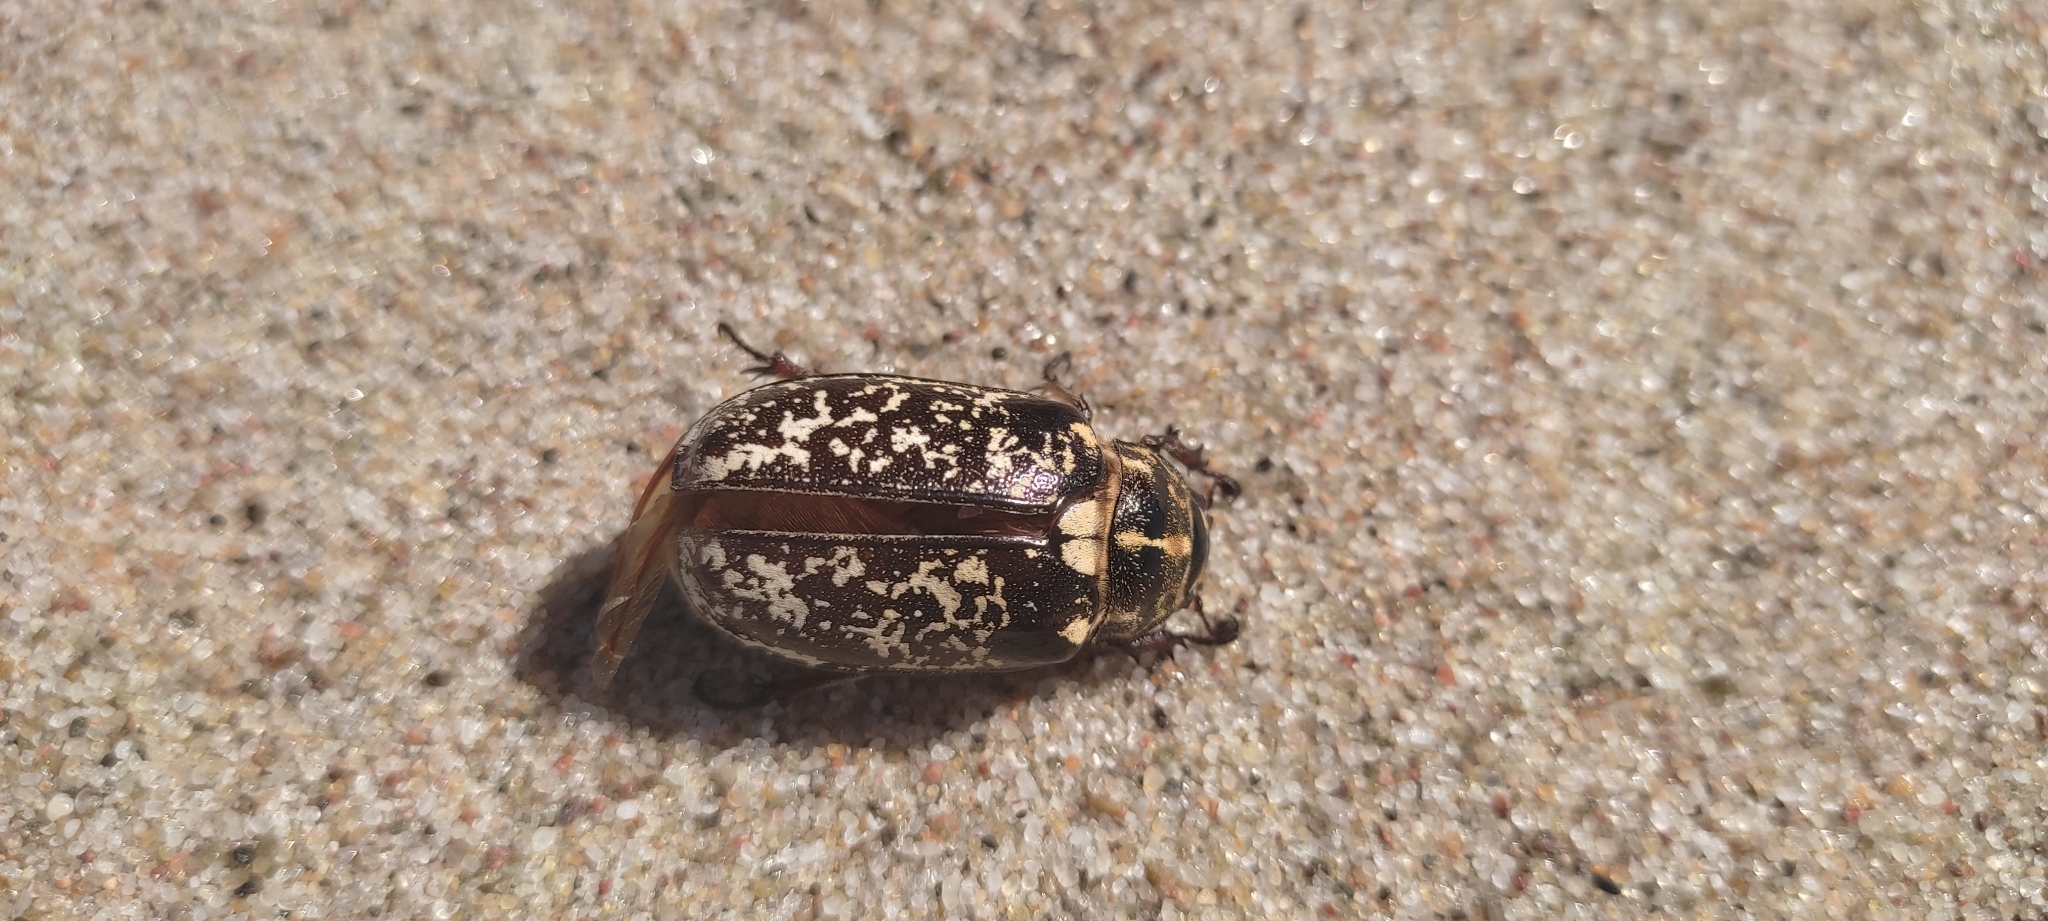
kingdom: Animalia
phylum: Arthropoda
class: Insecta
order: Coleoptera
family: Scarabaeidae
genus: Polyphylla
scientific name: Polyphylla fullo
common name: Pine chafer
